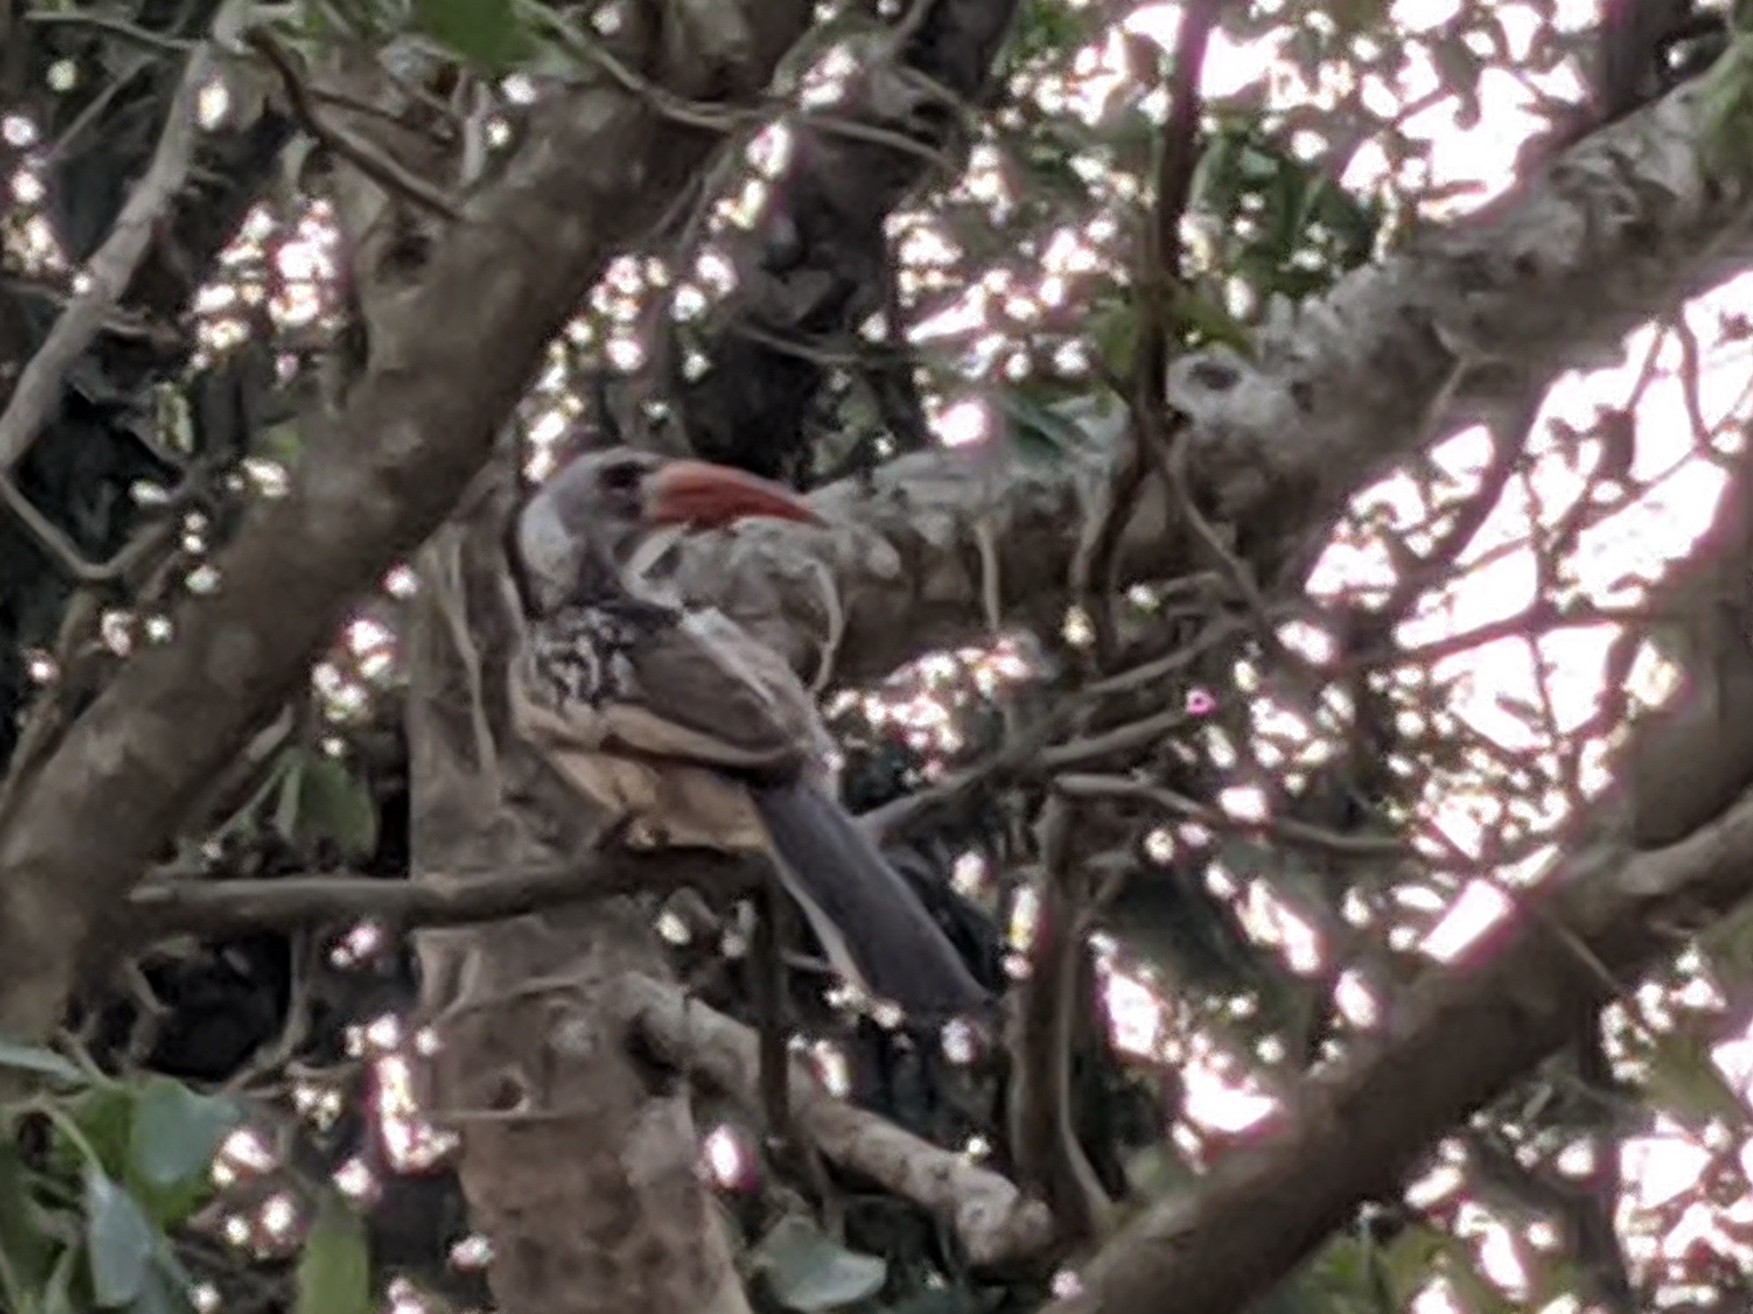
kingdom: Animalia
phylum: Chordata
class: Aves
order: Bucerotiformes
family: Bucerotidae
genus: Tockus
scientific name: Tockus erythrorhynchus
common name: Northern red-billed hornbill
